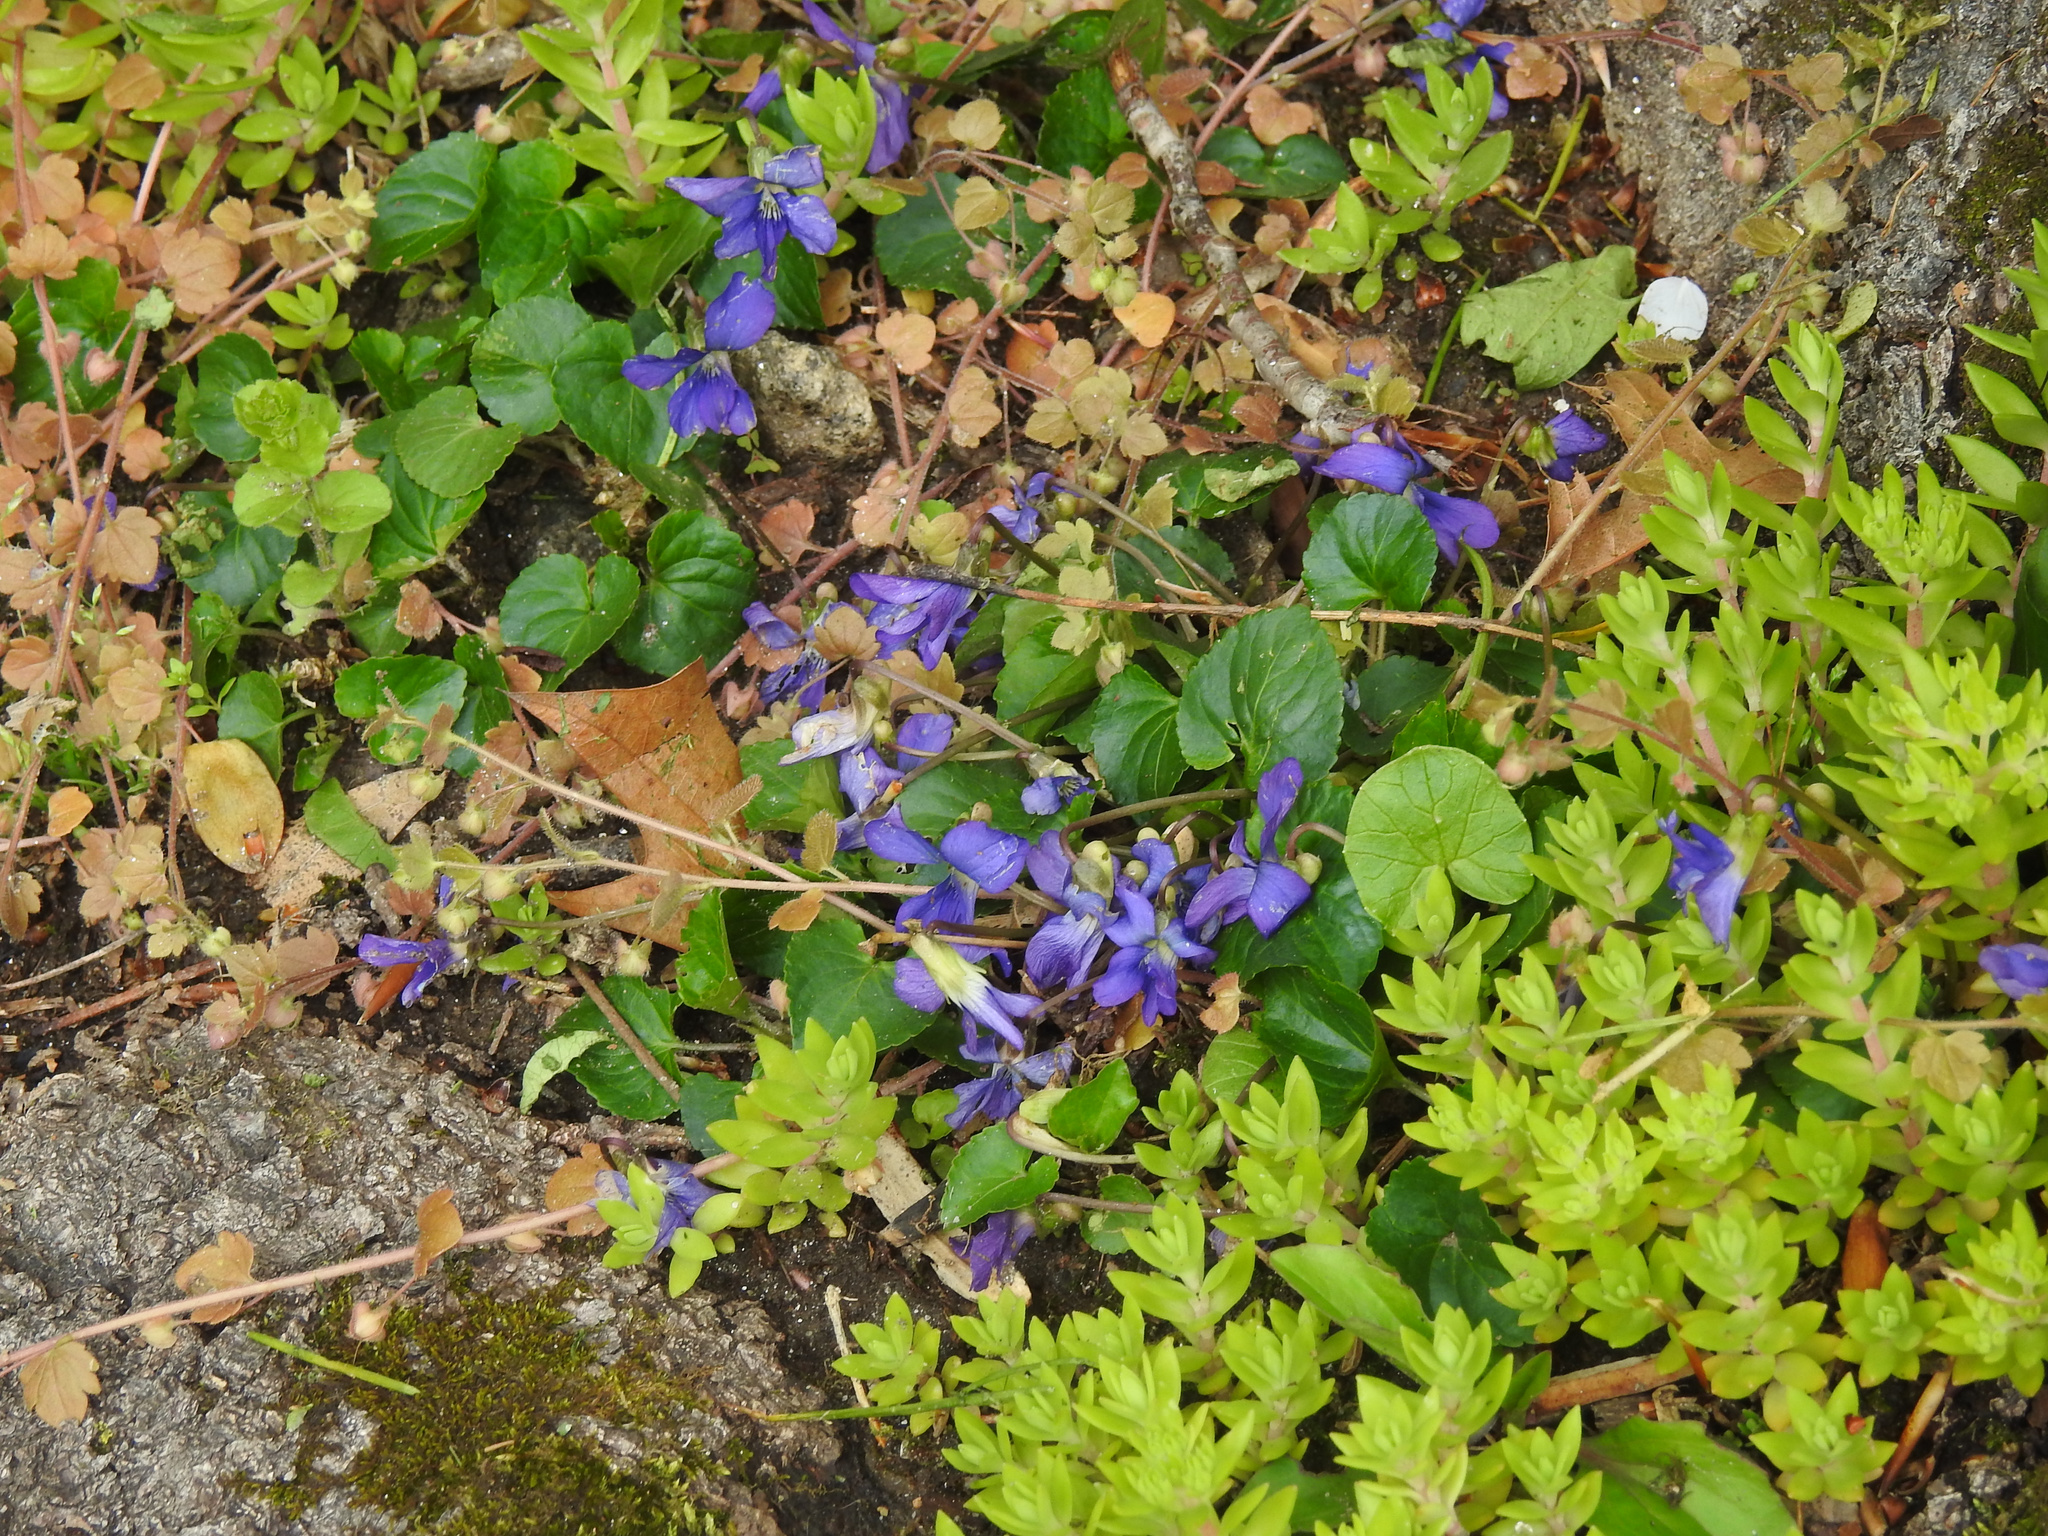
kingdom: Plantae
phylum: Tracheophyta
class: Magnoliopsida
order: Malpighiales
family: Violaceae
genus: Viola
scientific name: Viola sororia
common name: Dooryard violet
